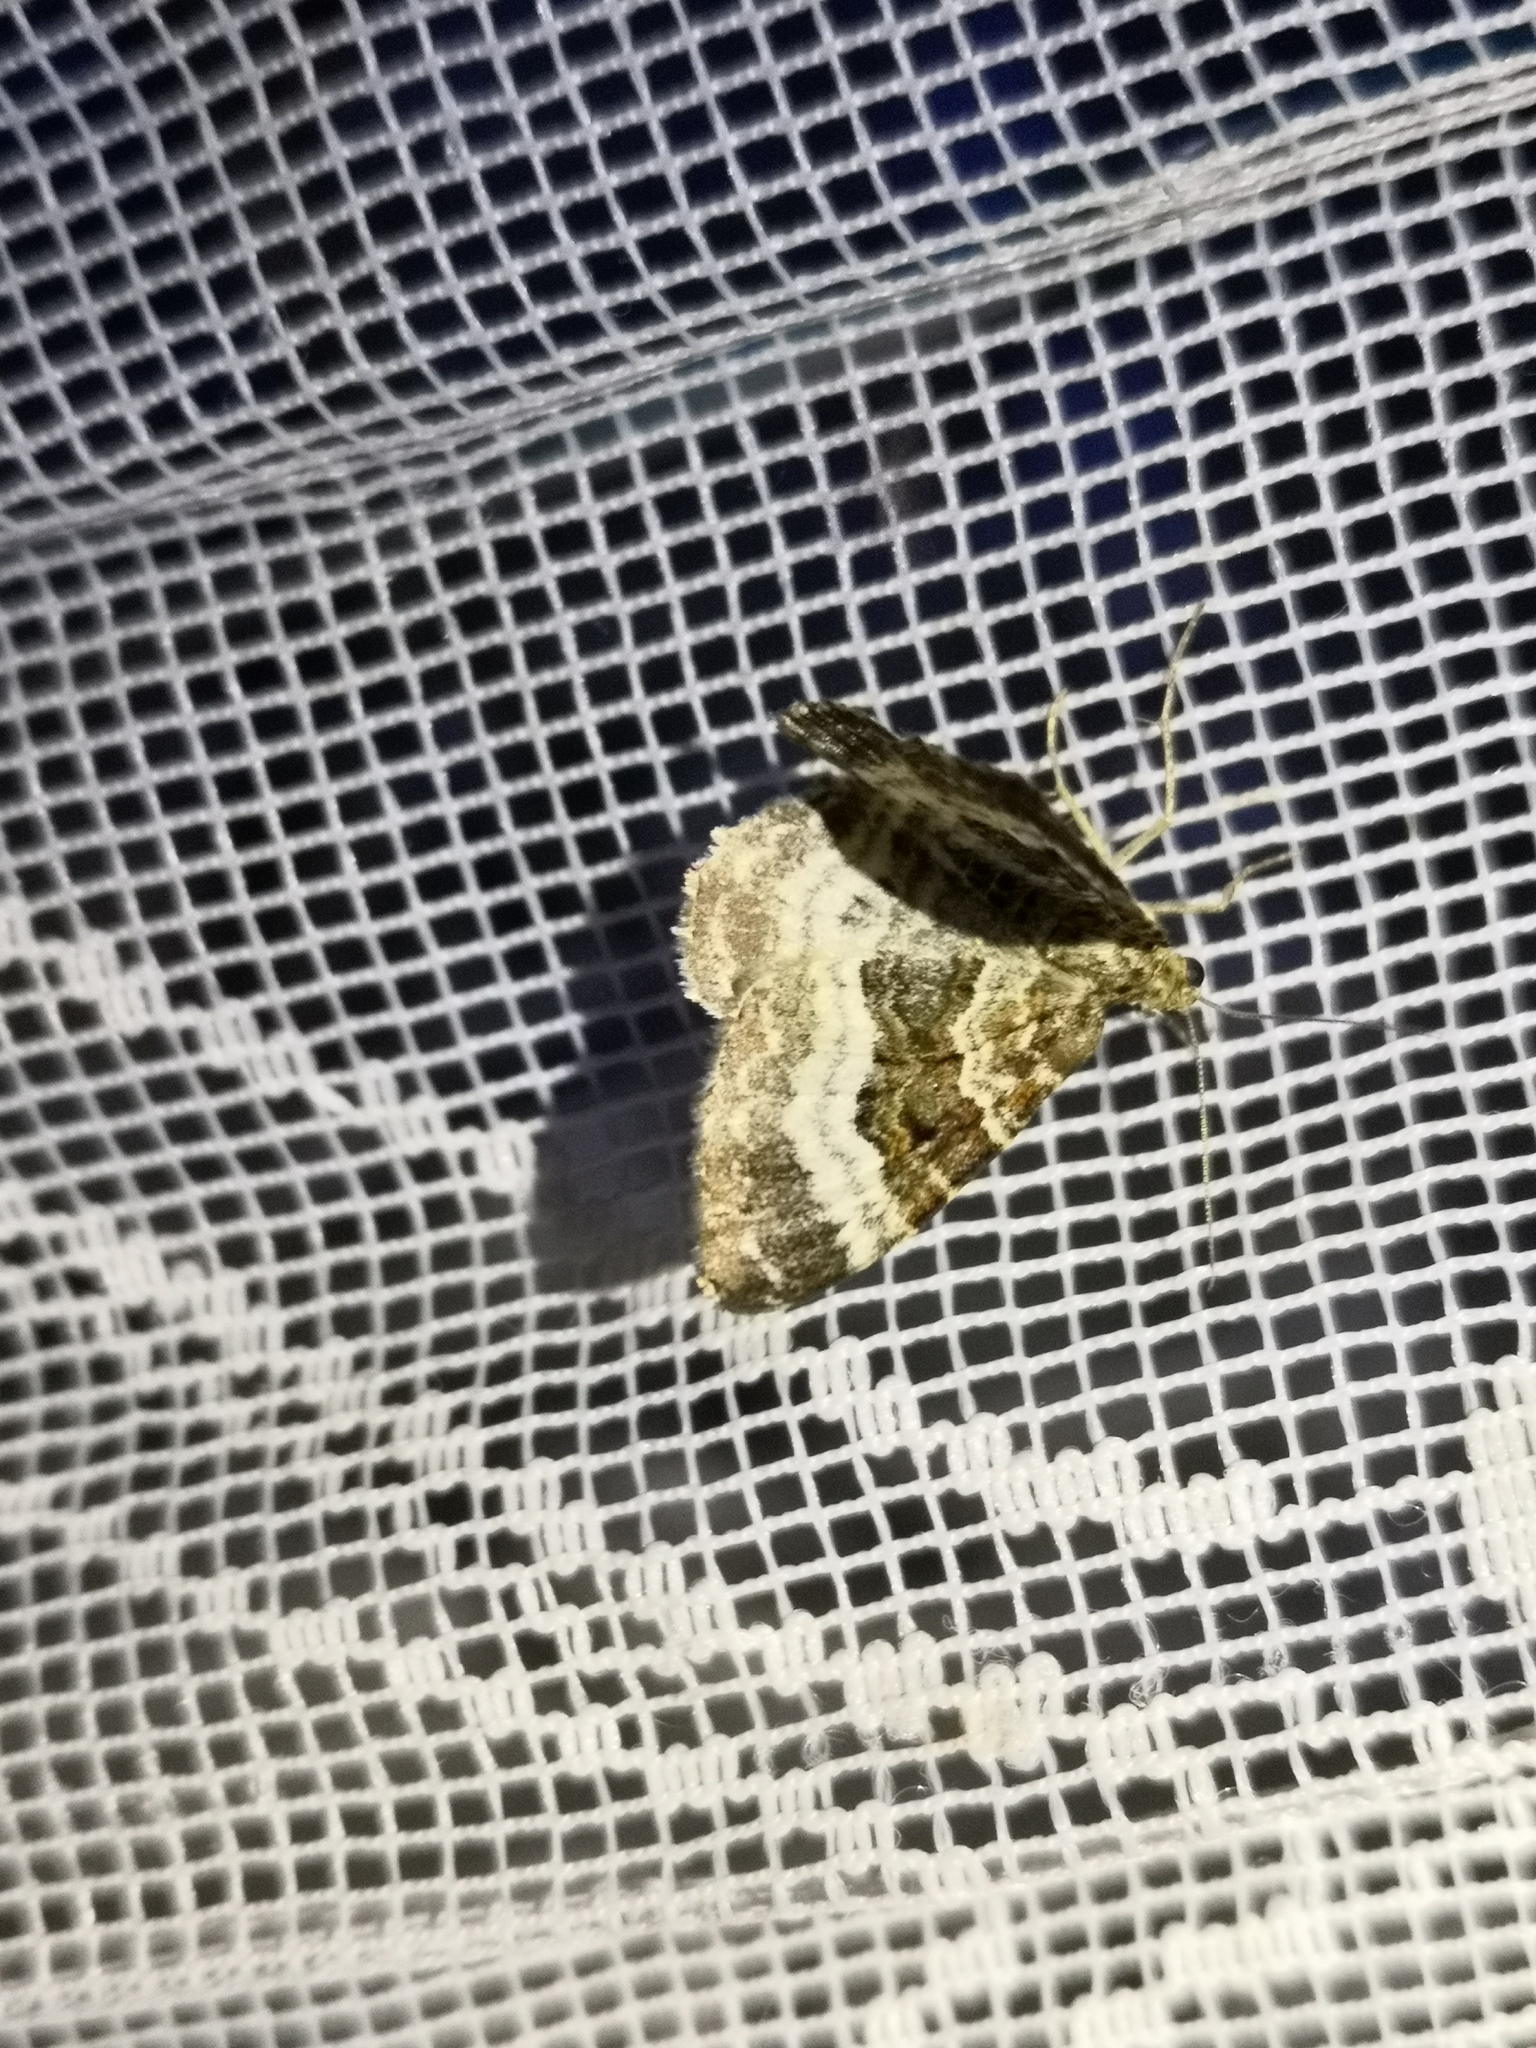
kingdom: Animalia
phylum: Arthropoda
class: Insecta
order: Lepidoptera
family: Geometridae
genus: Epirrhoe
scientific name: Epirrhoe alternata
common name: Common carpet
